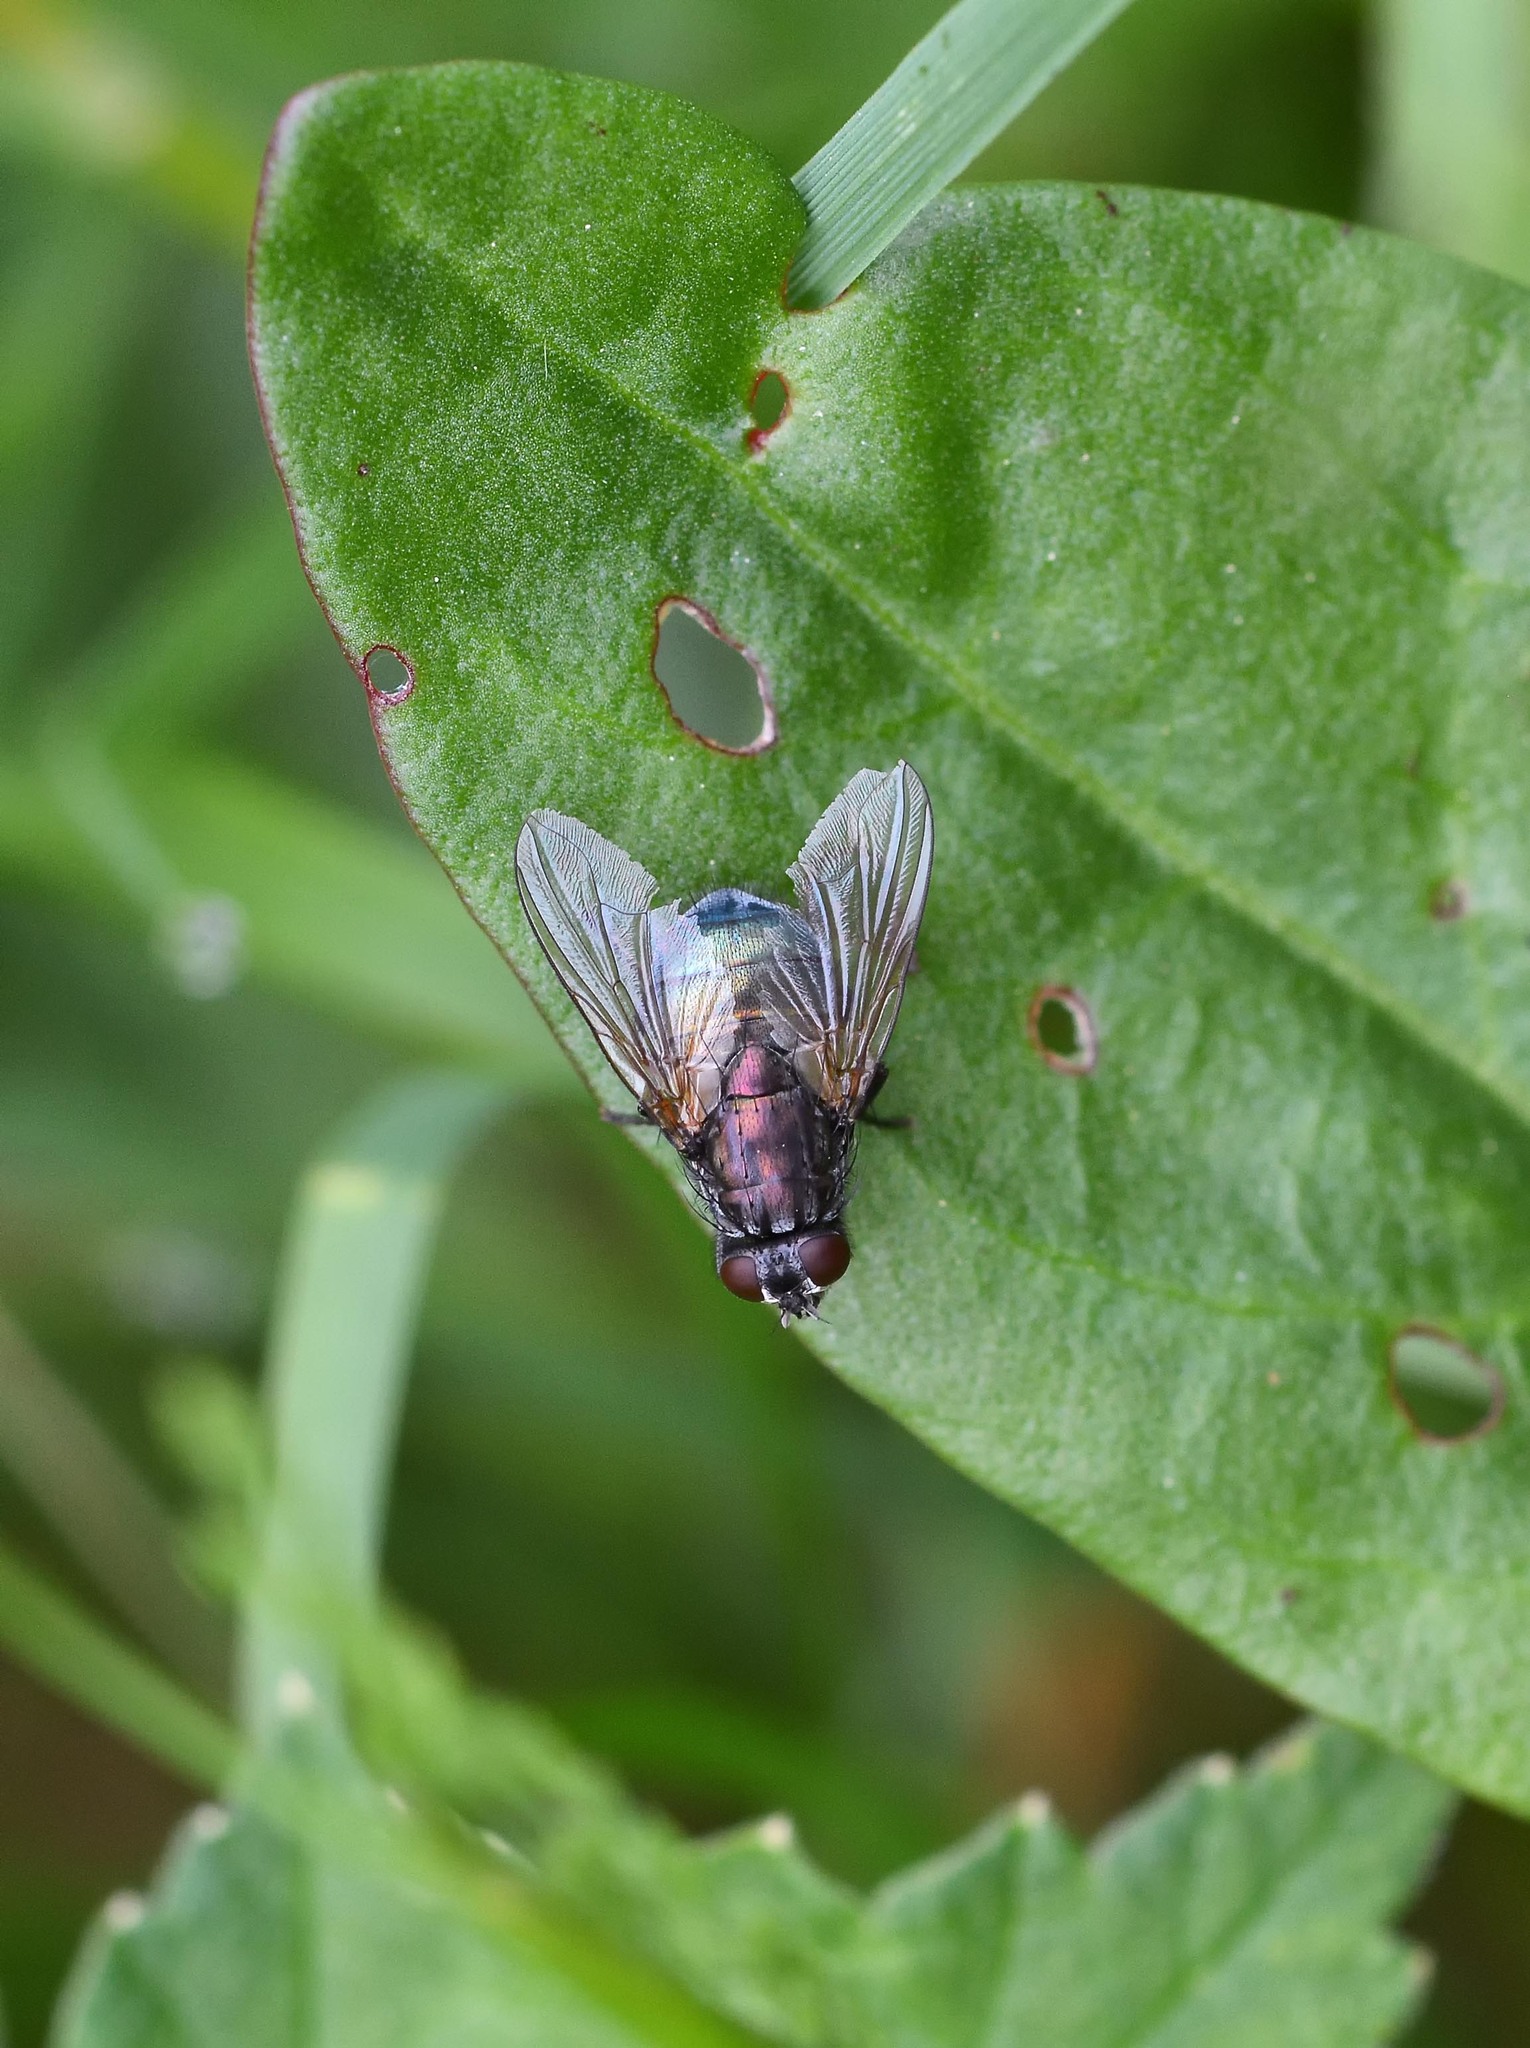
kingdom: Animalia
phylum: Arthropoda
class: Insecta
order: Diptera
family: Muscidae
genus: Dasyphora
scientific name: Dasyphora cyanella
